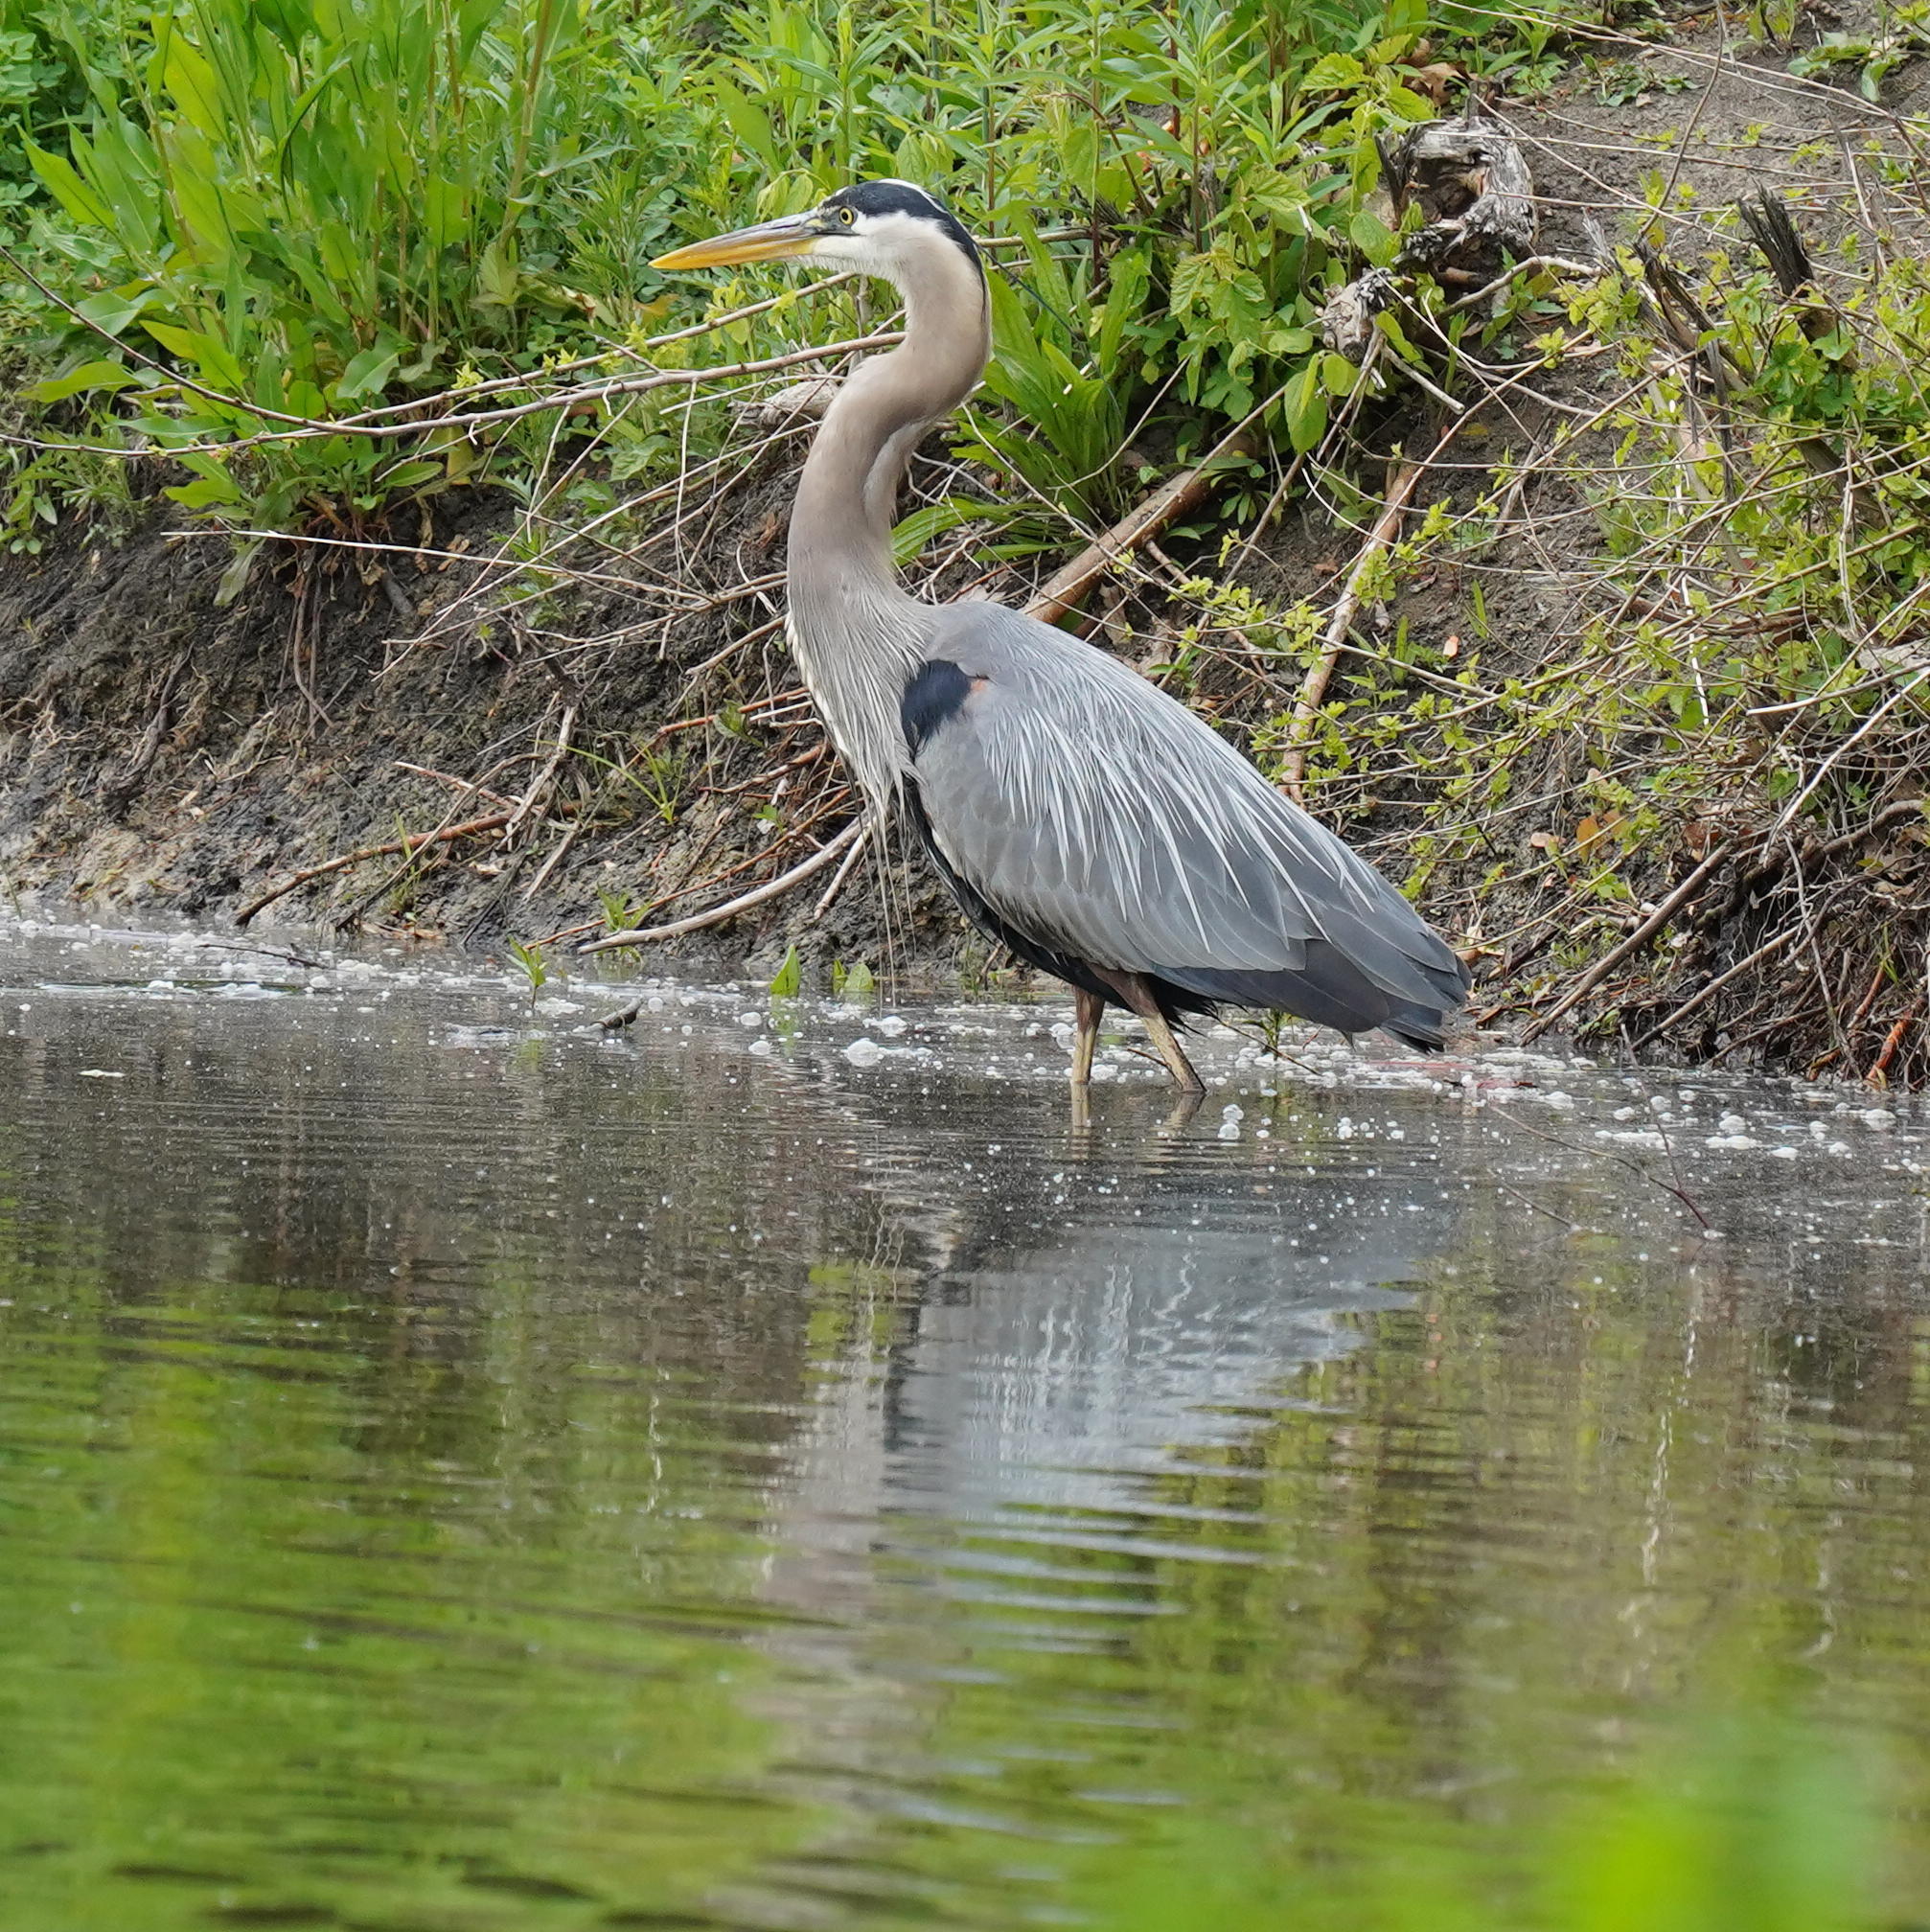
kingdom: Animalia
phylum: Chordata
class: Aves
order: Pelecaniformes
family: Ardeidae
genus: Ardea
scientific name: Ardea herodias
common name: Great blue heron
